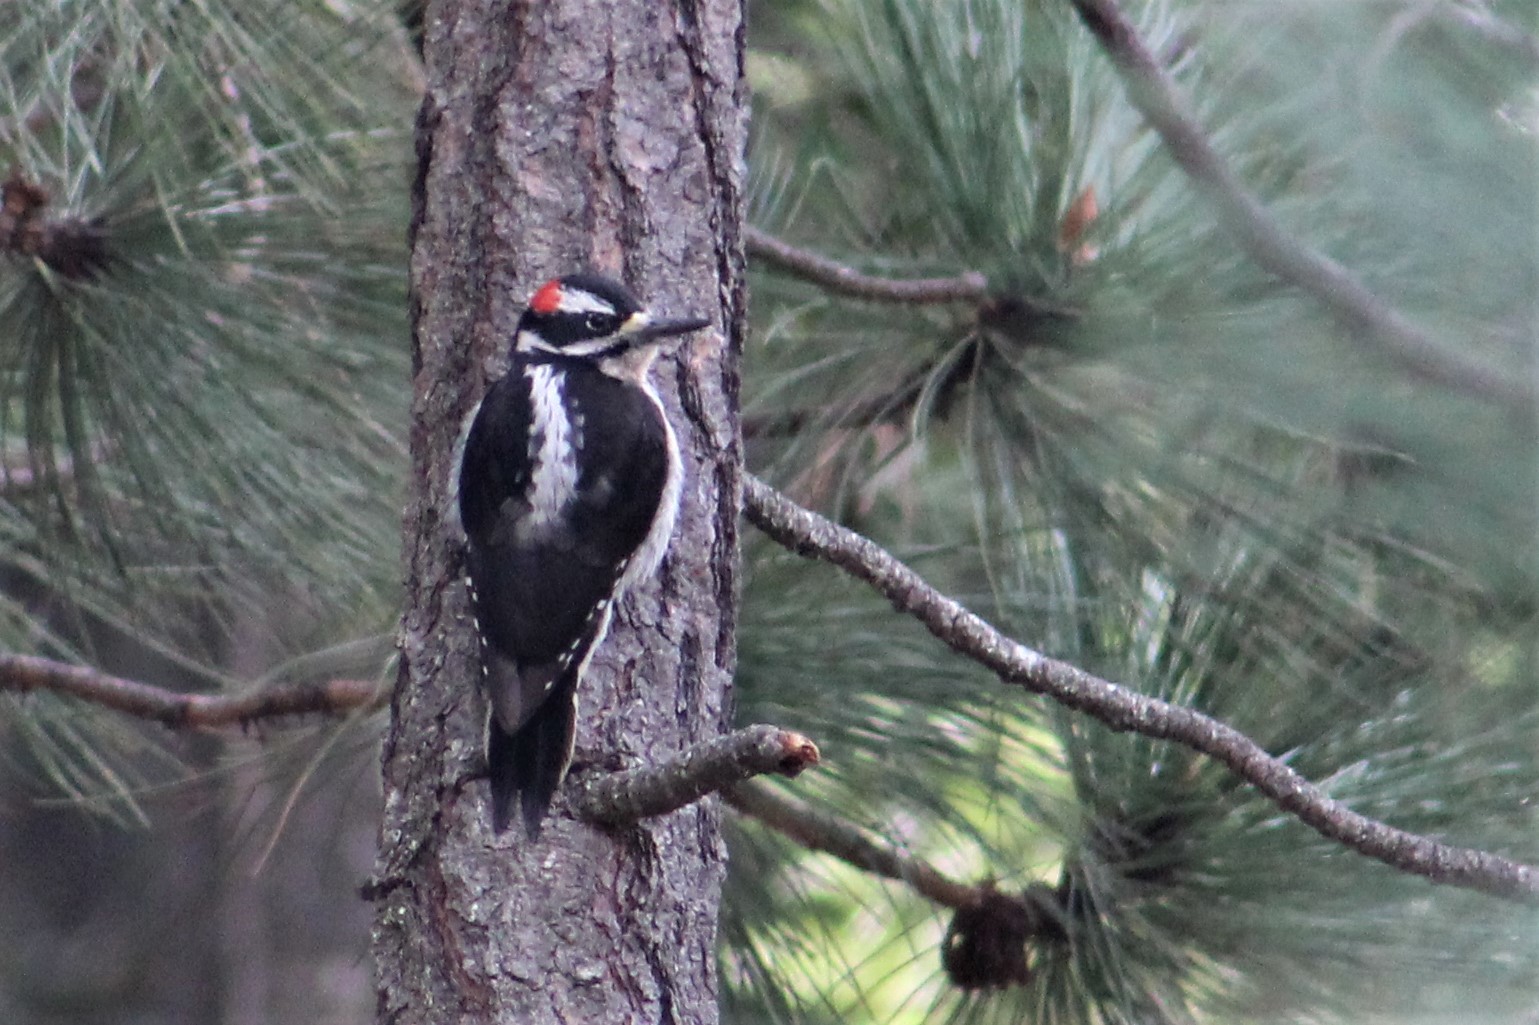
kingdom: Animalia
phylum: Chordata
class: Aves
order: Piciformes
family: Picidae
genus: Leuconotopicus
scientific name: Leuconotopicus villosus
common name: Hairy woodpecker
